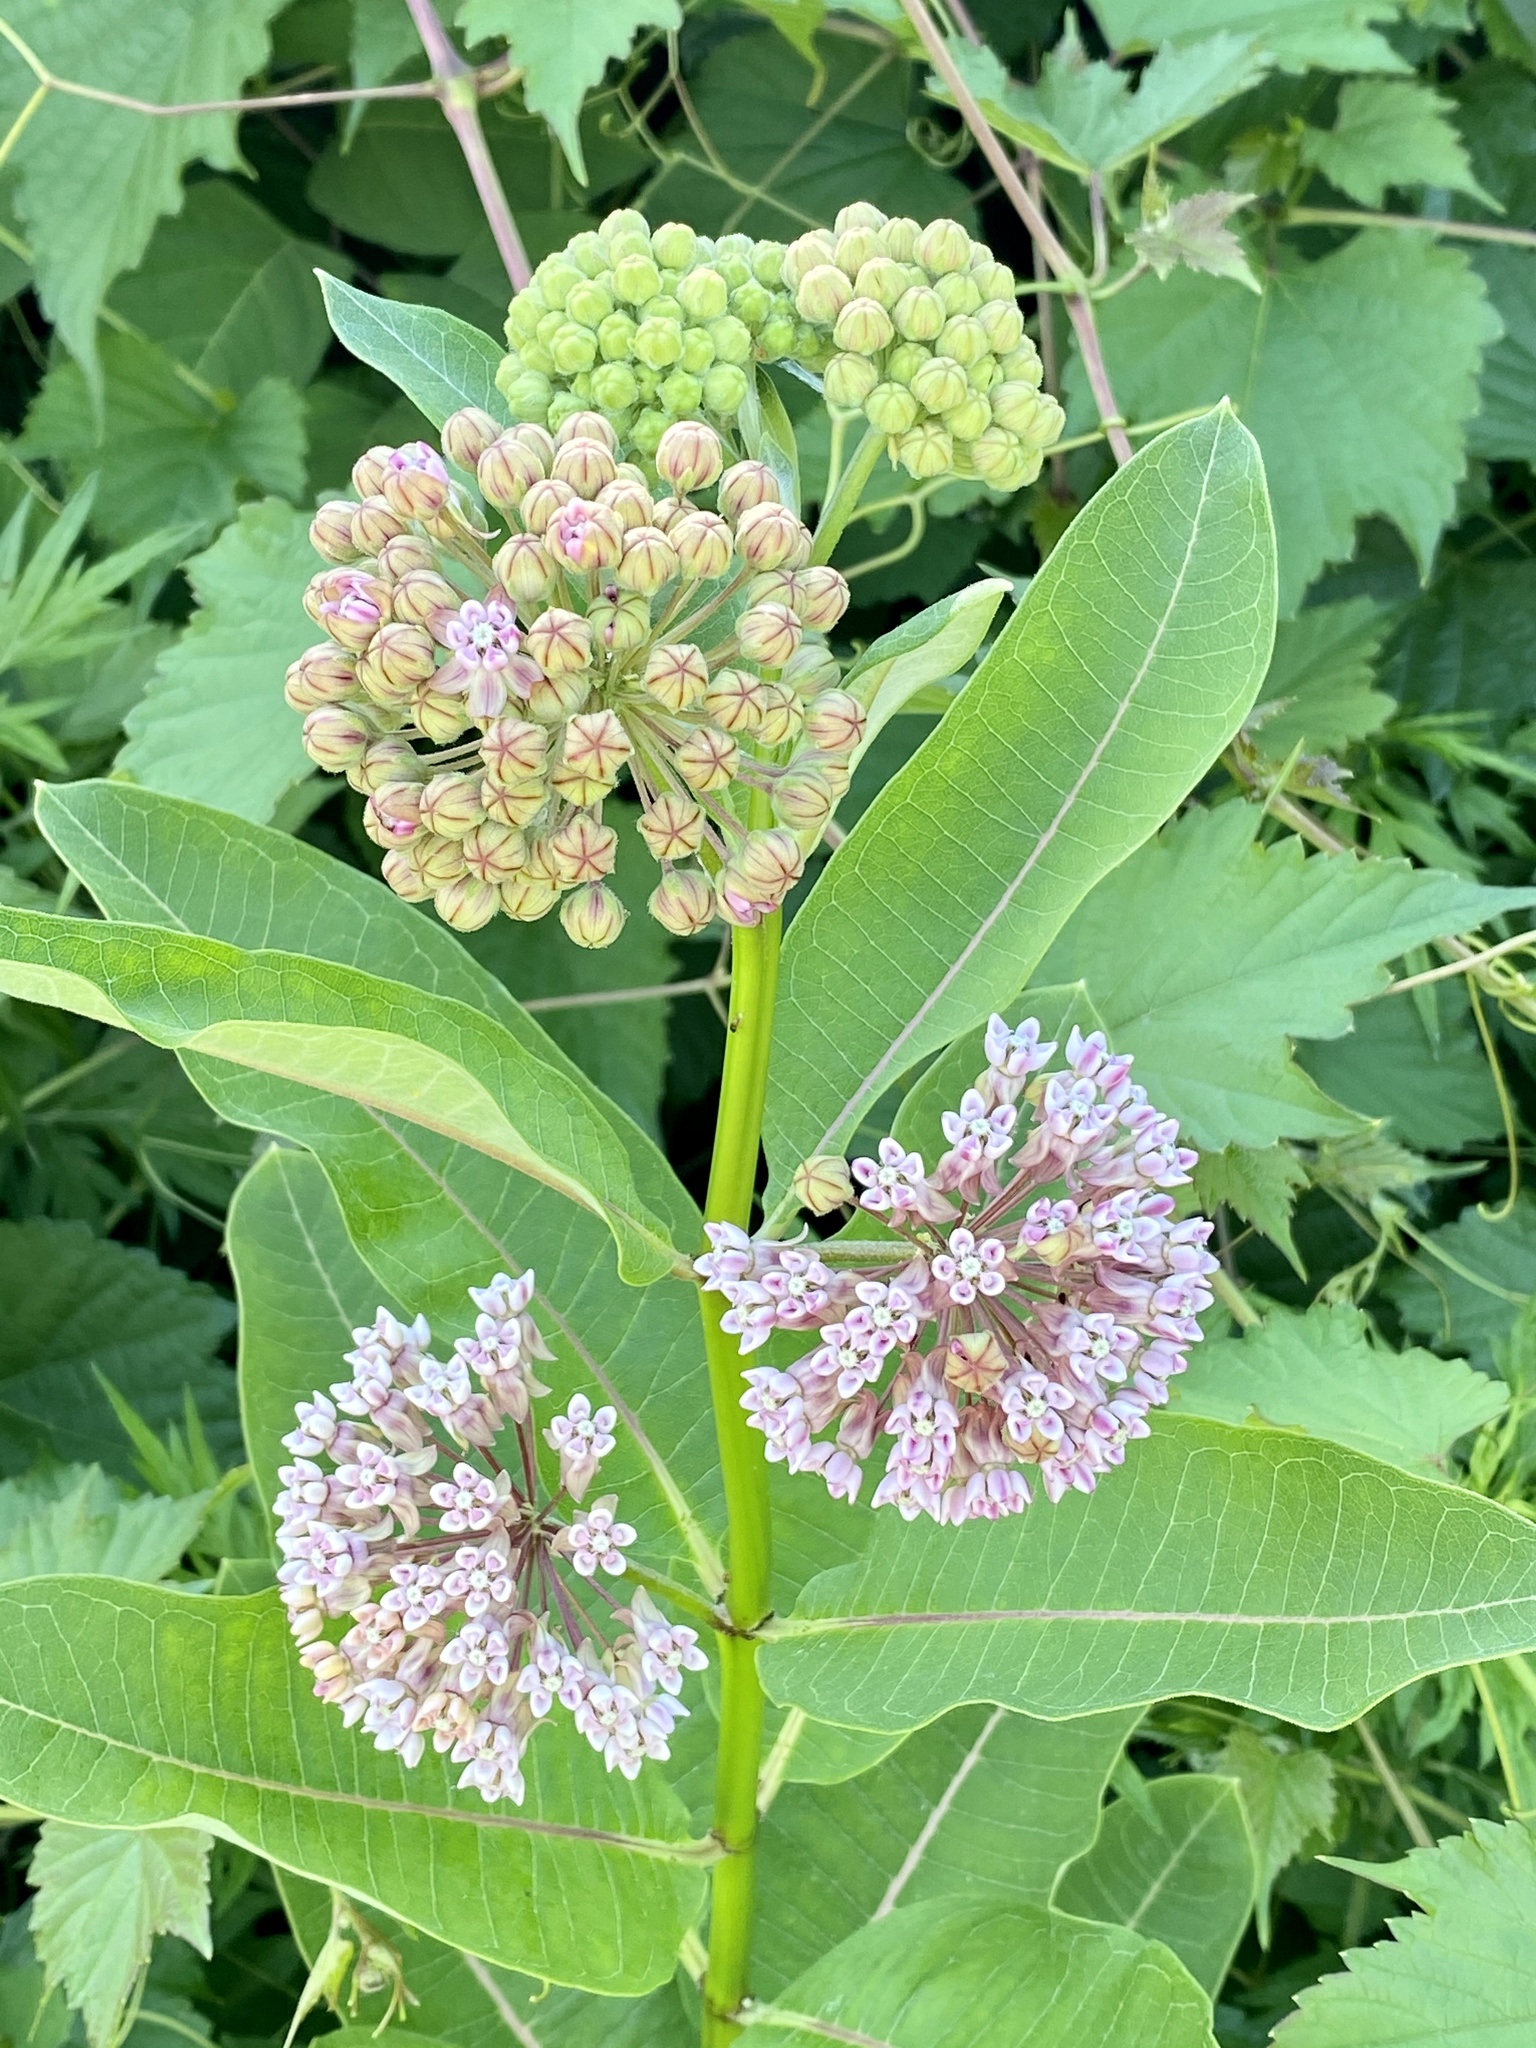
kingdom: Plantae
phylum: Tracheophyta
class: Magnoliopsida
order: Gentianales
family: Apocynaceae
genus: Asclepias
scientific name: Asclepias syriaca
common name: Common milkweed
